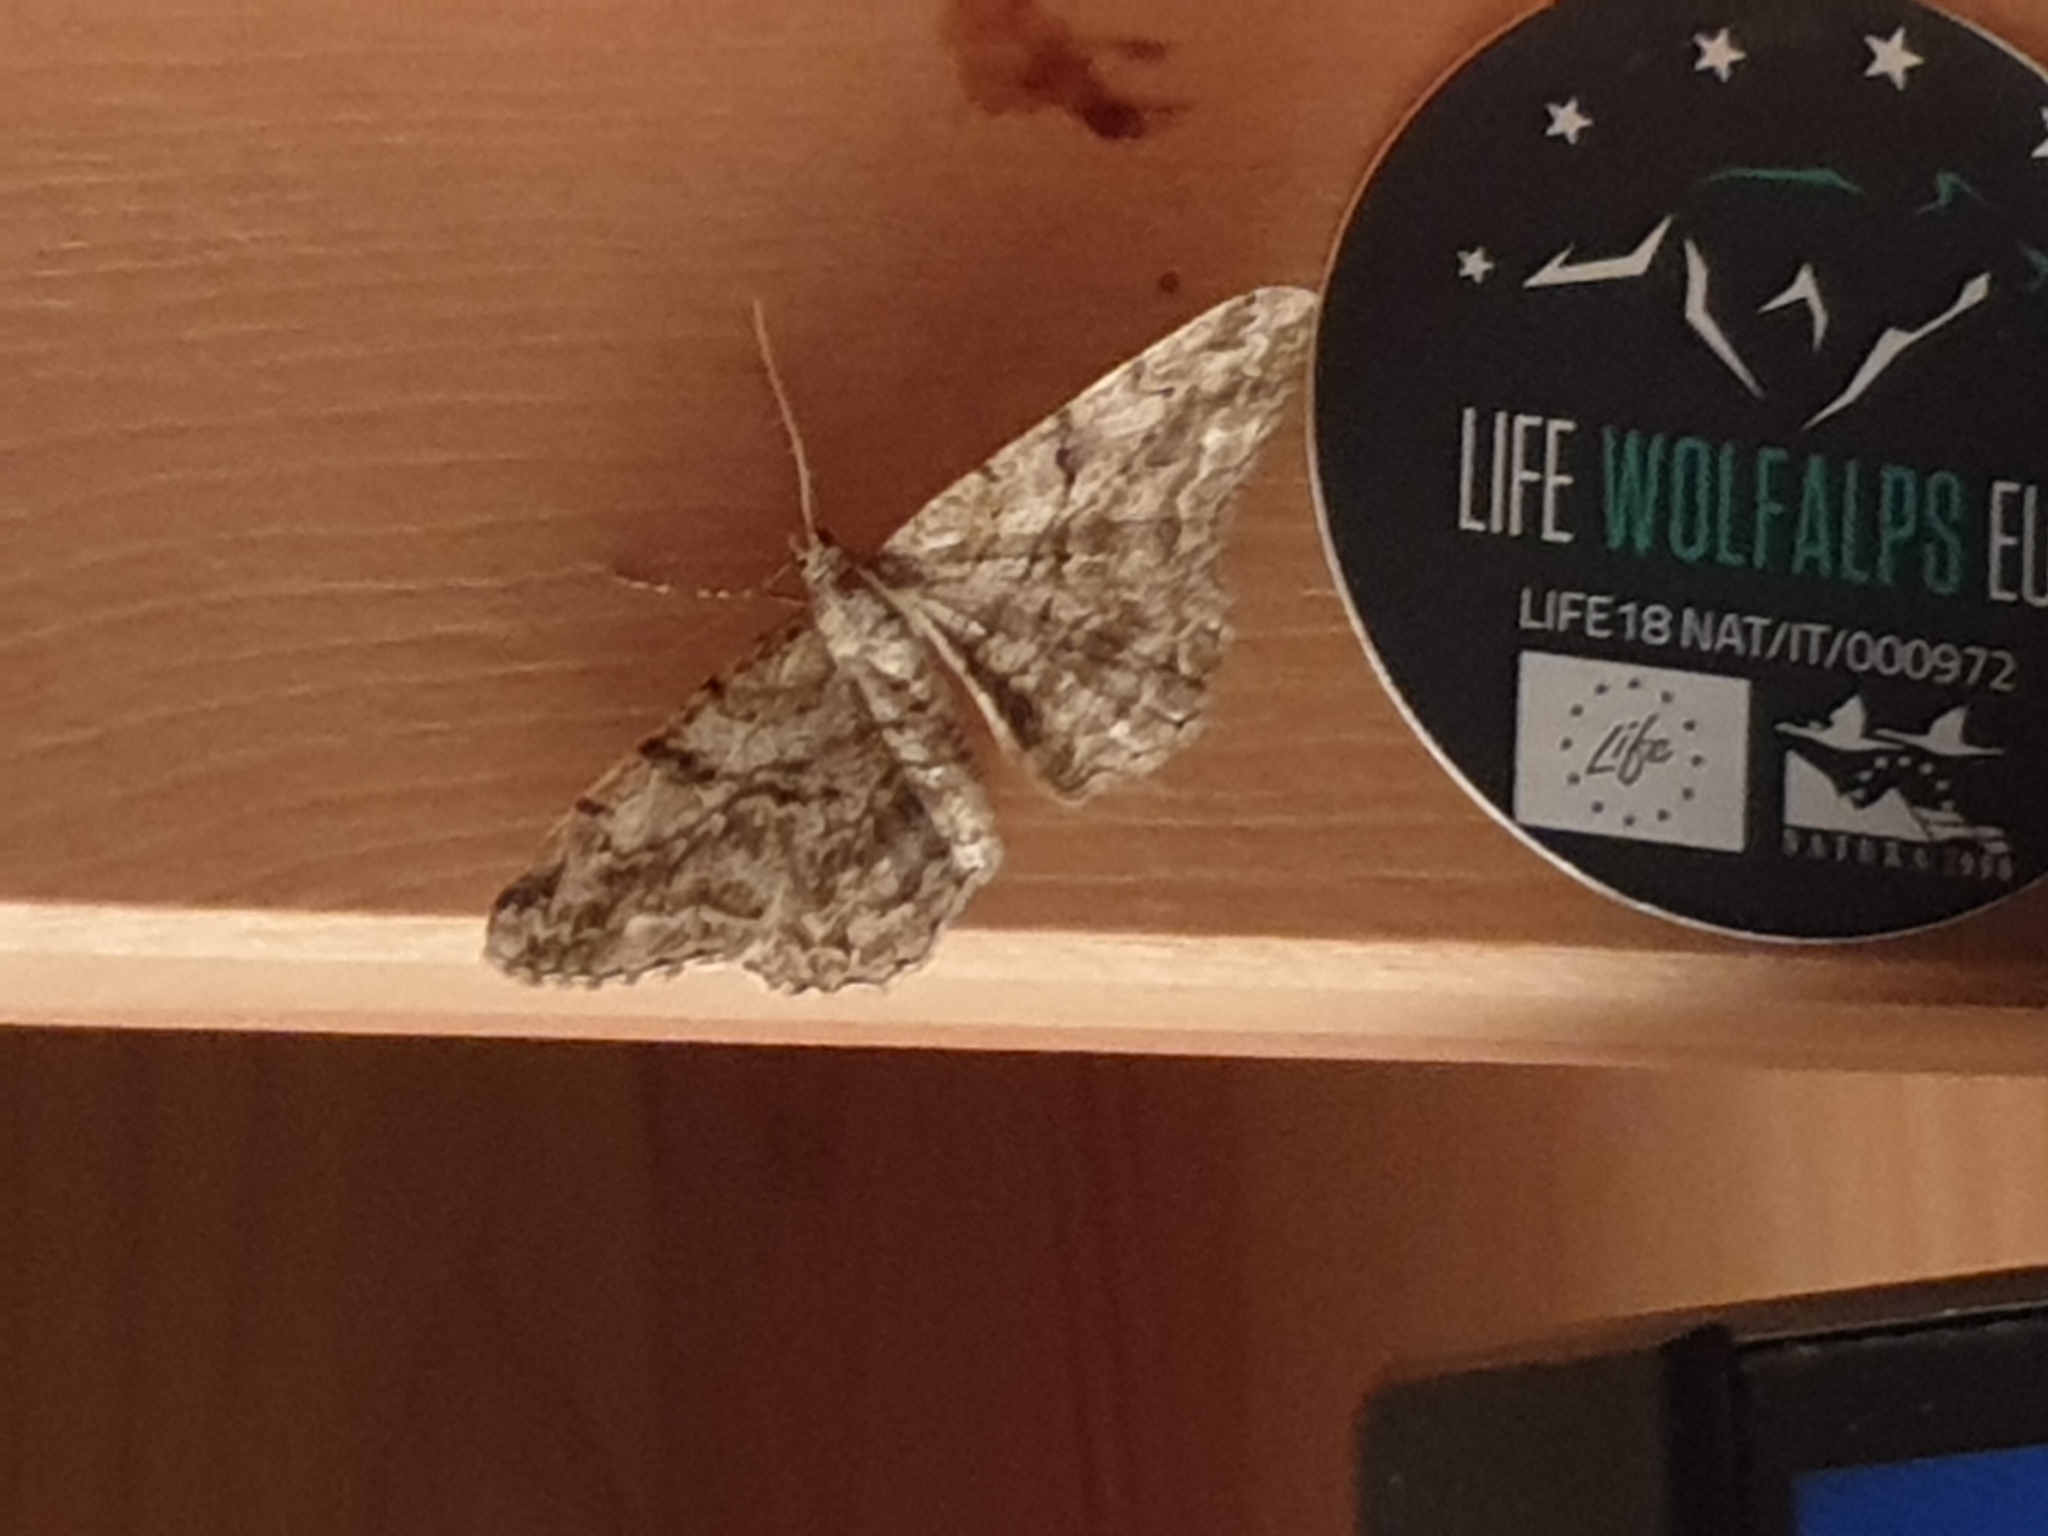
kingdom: Animalia
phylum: Arthropoda
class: Insecta
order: Lepidoptera
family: Geometridae
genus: Peribatodes
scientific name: Peribatodes rhomboidaria
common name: Willow beauty
